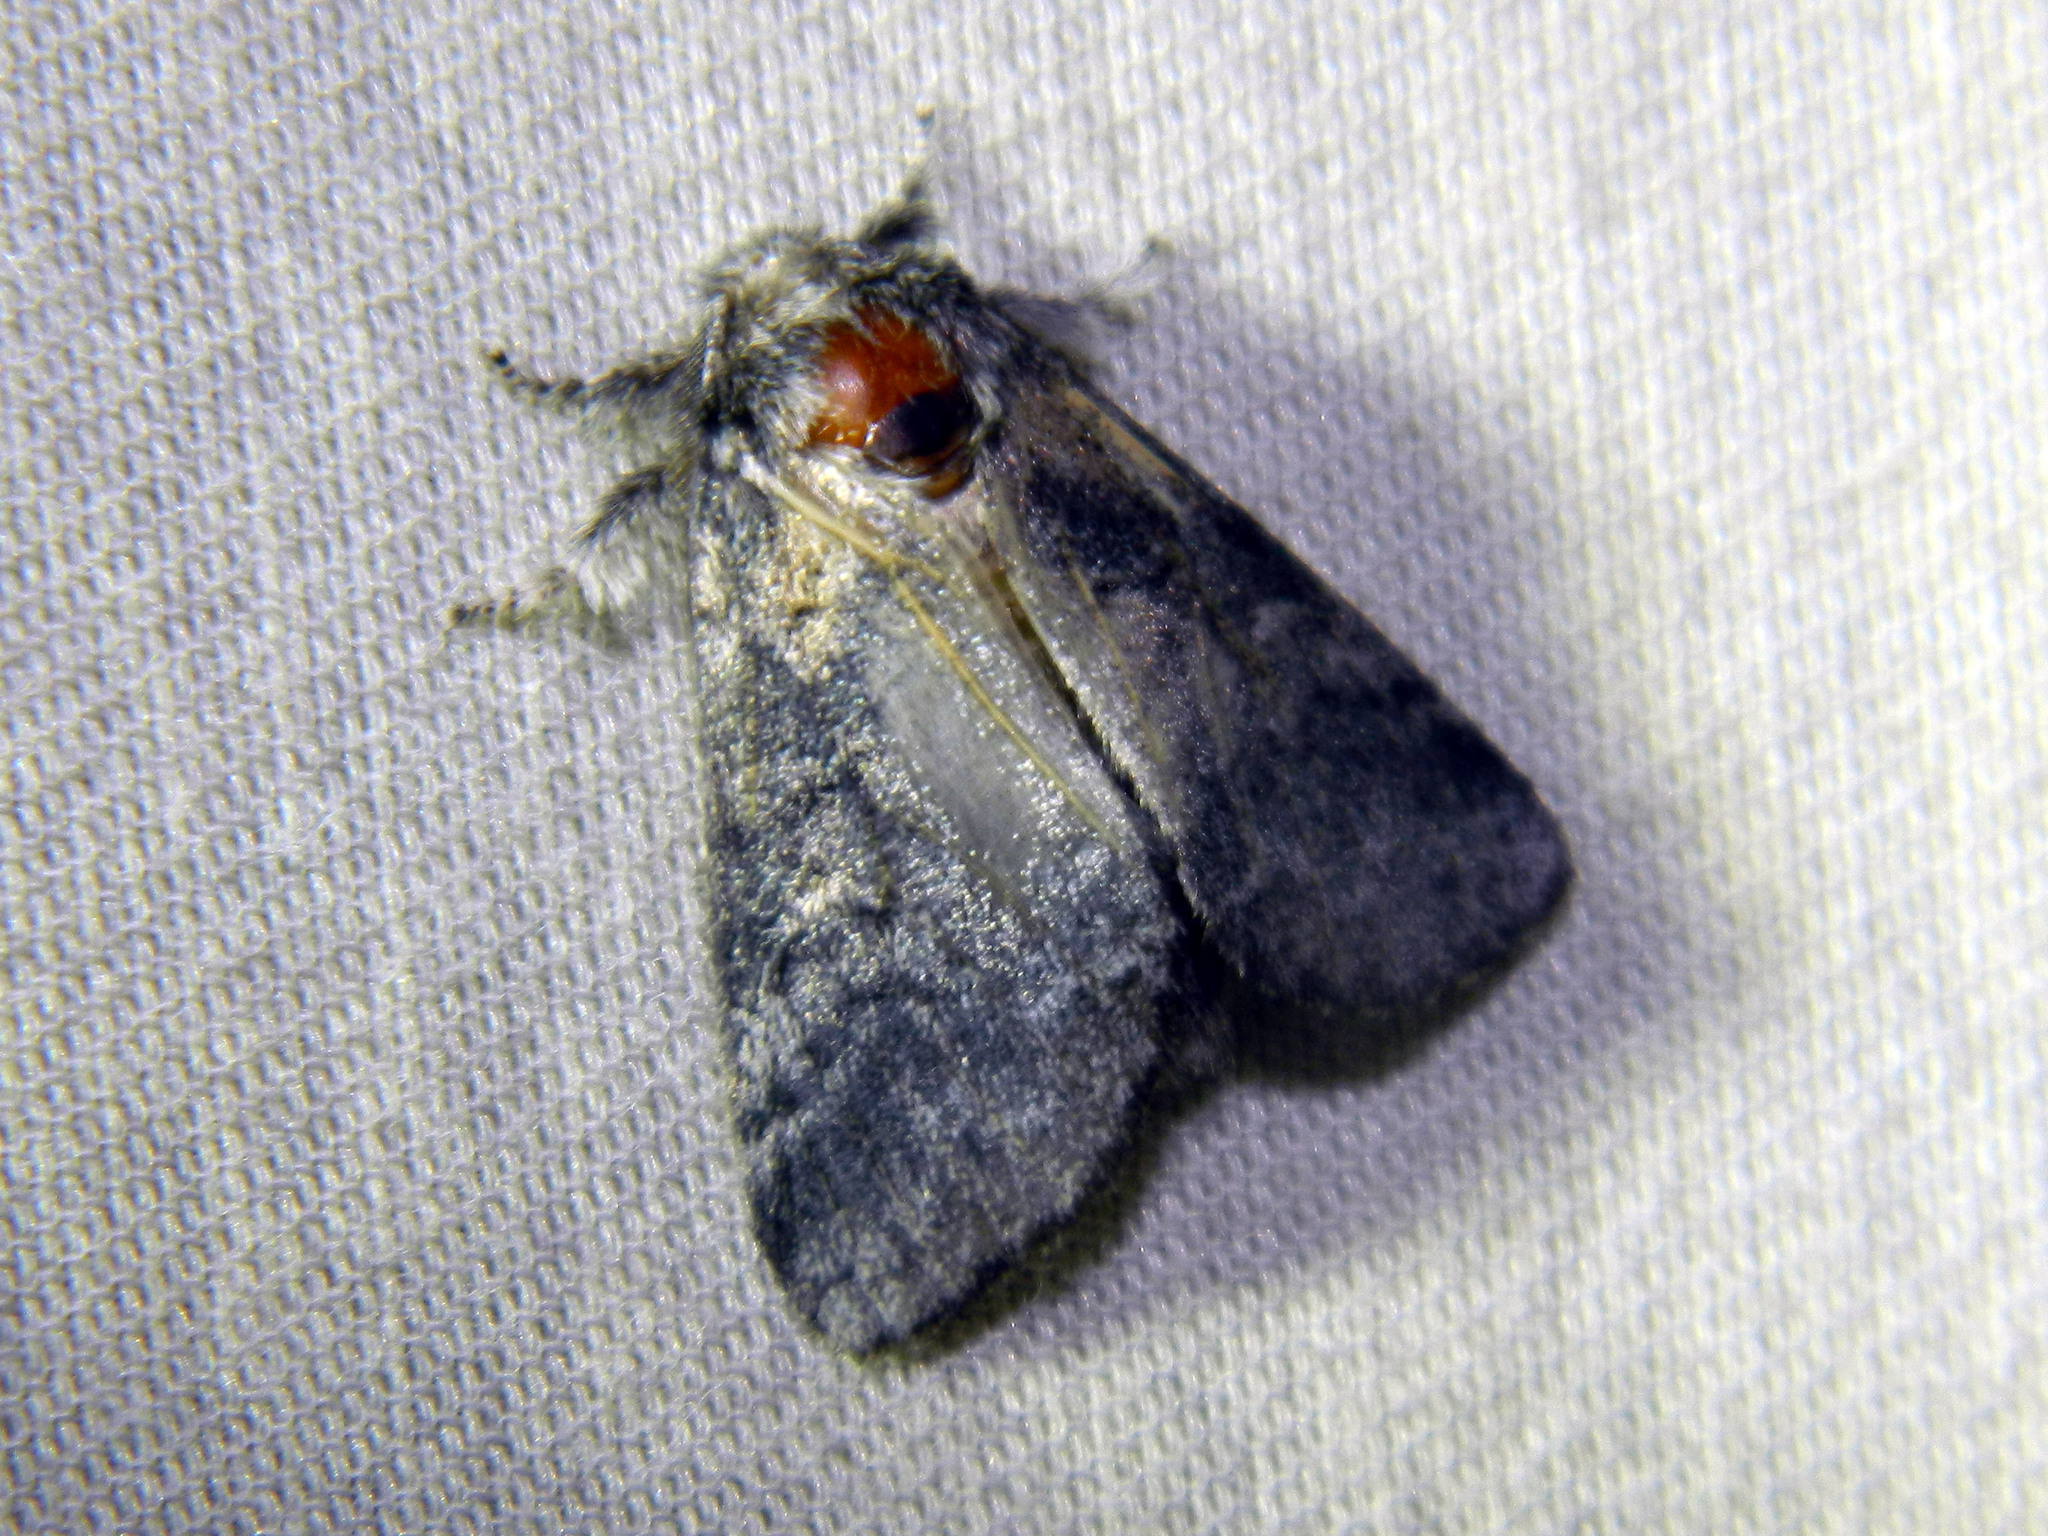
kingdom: Animalia
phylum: Arthropoda
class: Insecta
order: Lepidoptera
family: Notodontidae
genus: Gluphisia
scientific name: Gluphisia septentrionis
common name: Common gluphisia
